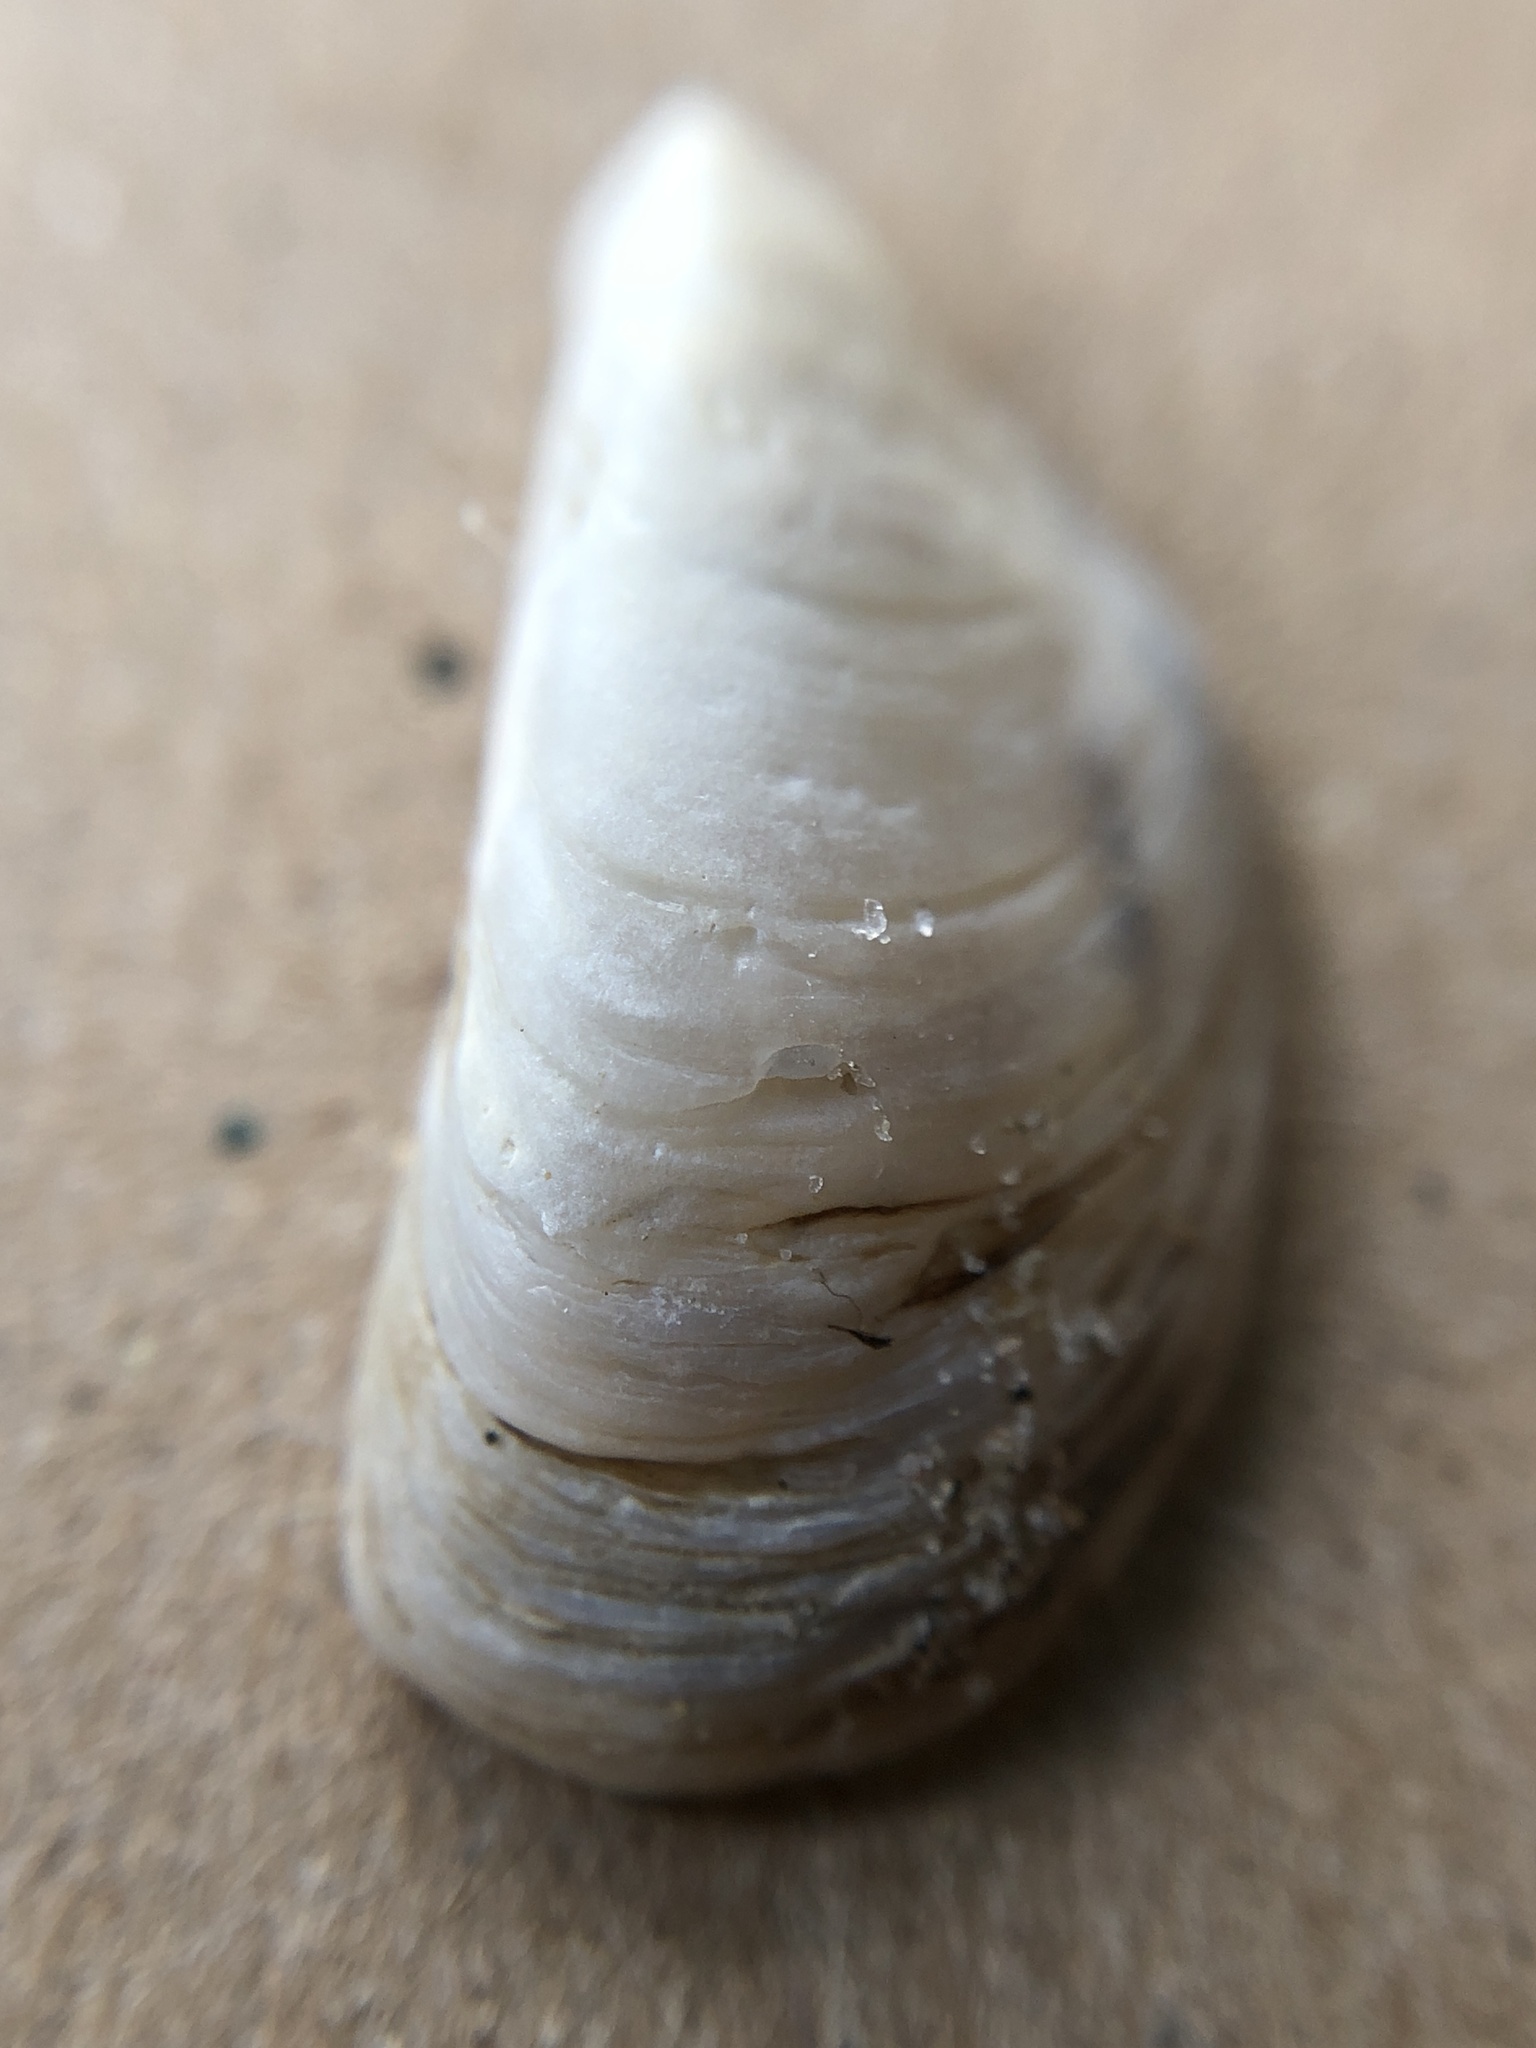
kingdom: Animalia
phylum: Mollusca
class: Bivalvia
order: Myida
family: Dreissenidae
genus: Dreissena
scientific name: Dreissena polymorpha
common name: Zebra mussel
